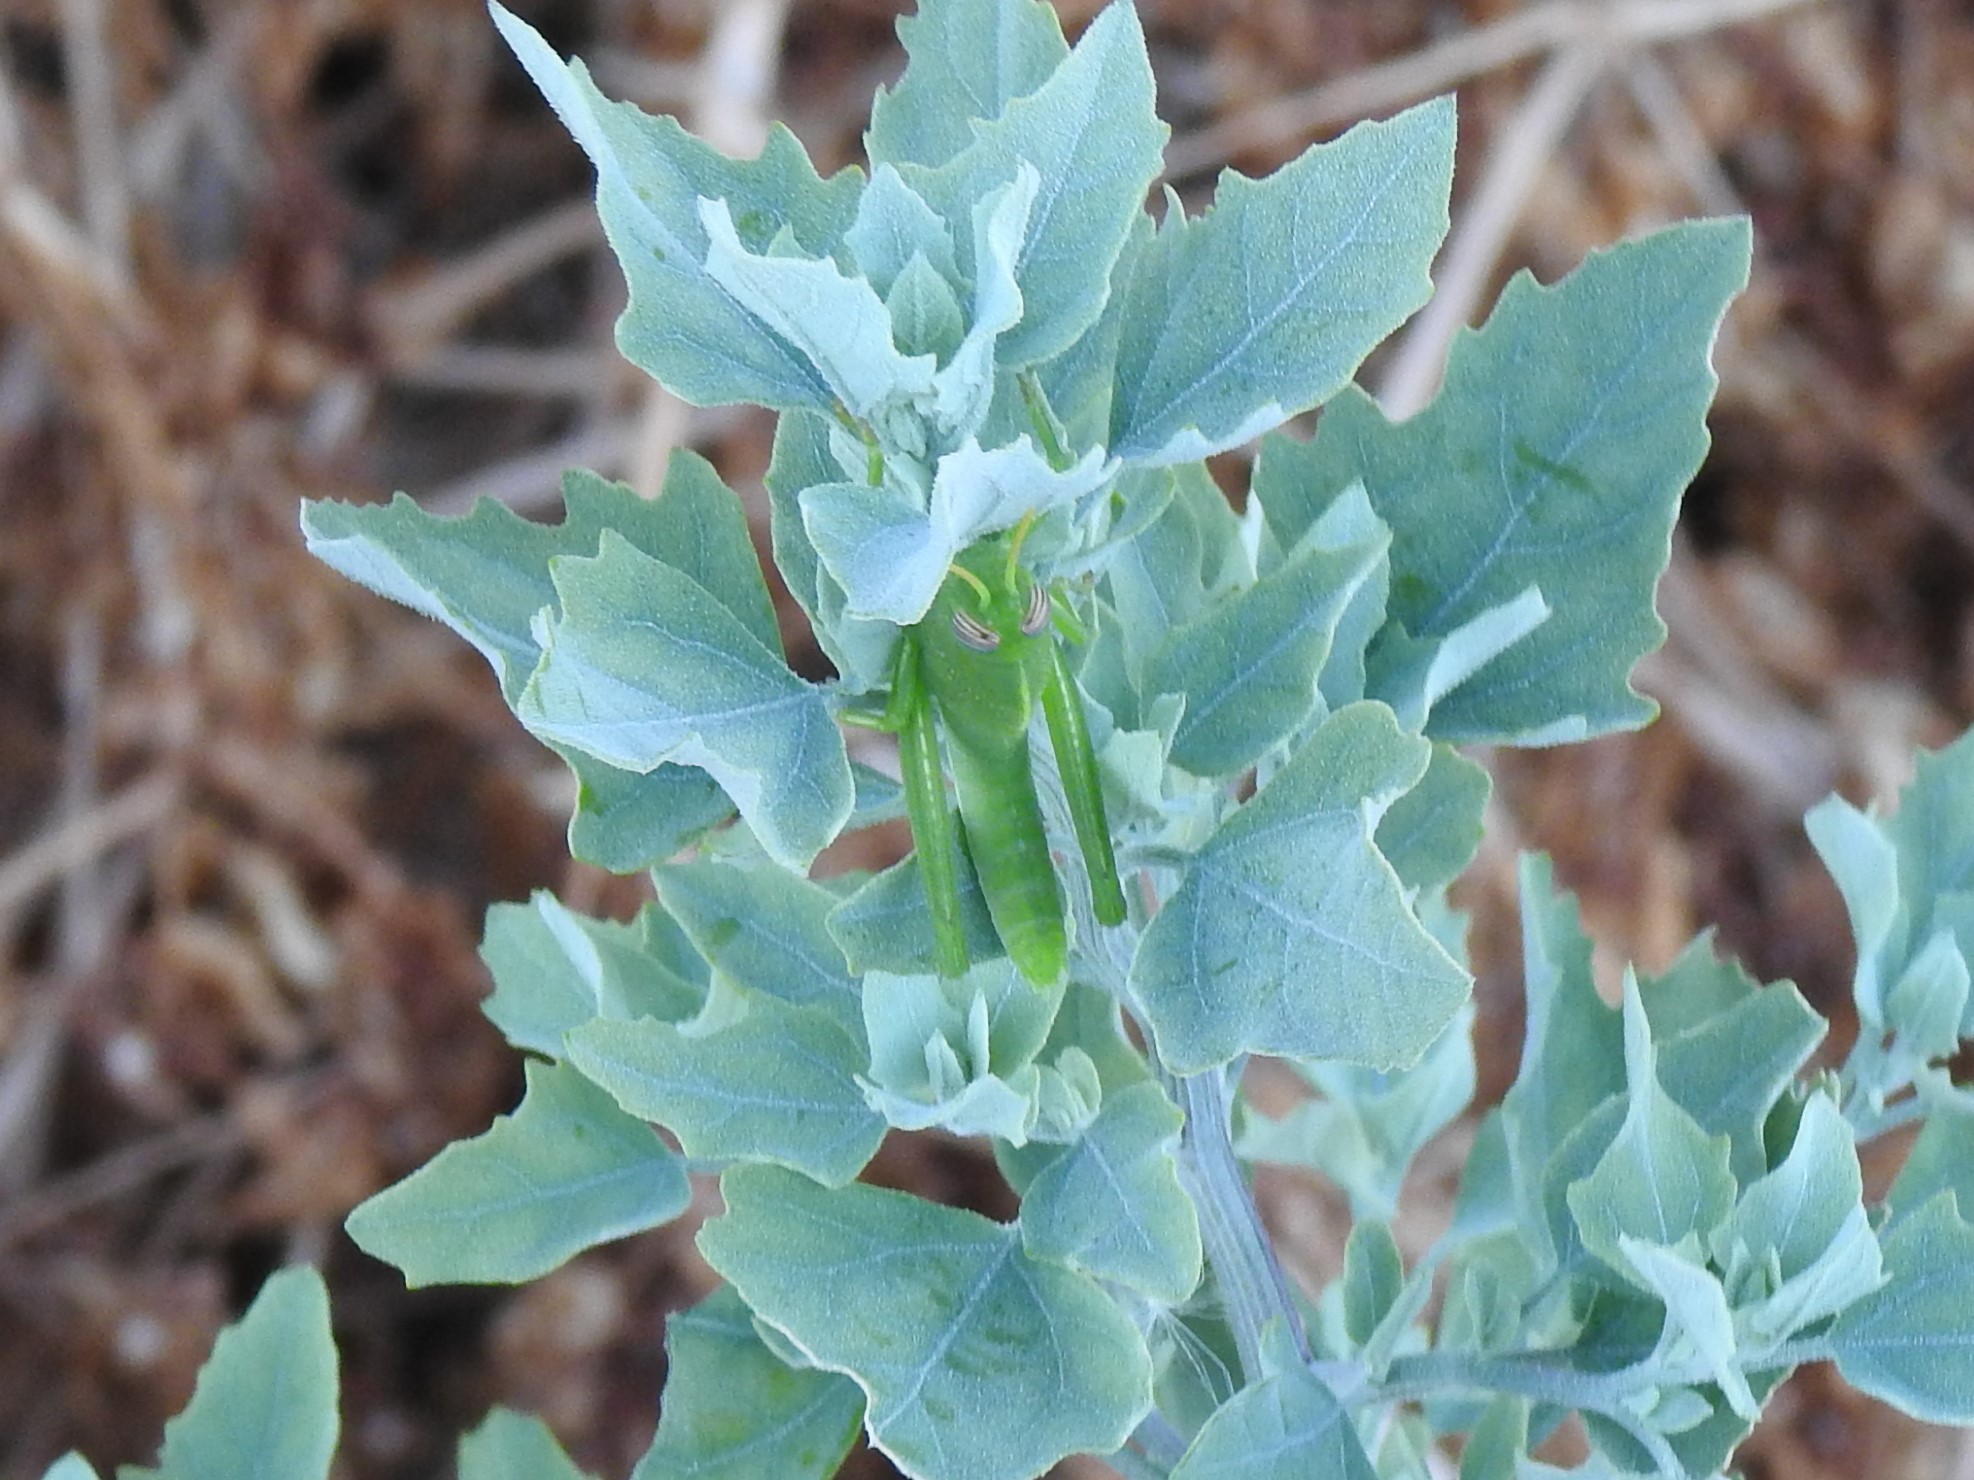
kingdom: Animalia
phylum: Arthropoda
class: Insecta
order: Orthoptera
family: Acrididae
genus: Anacridium
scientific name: Anacridium aegyptium
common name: Egyptian grasshopper
